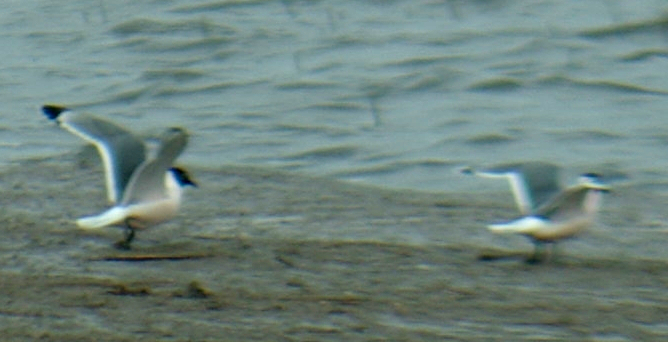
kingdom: Animalia
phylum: Chordata
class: Aves
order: Charadriiformes
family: Laridae
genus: Leucophaeus
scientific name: Leucophaeus pipixcan
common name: Franklin's gull
